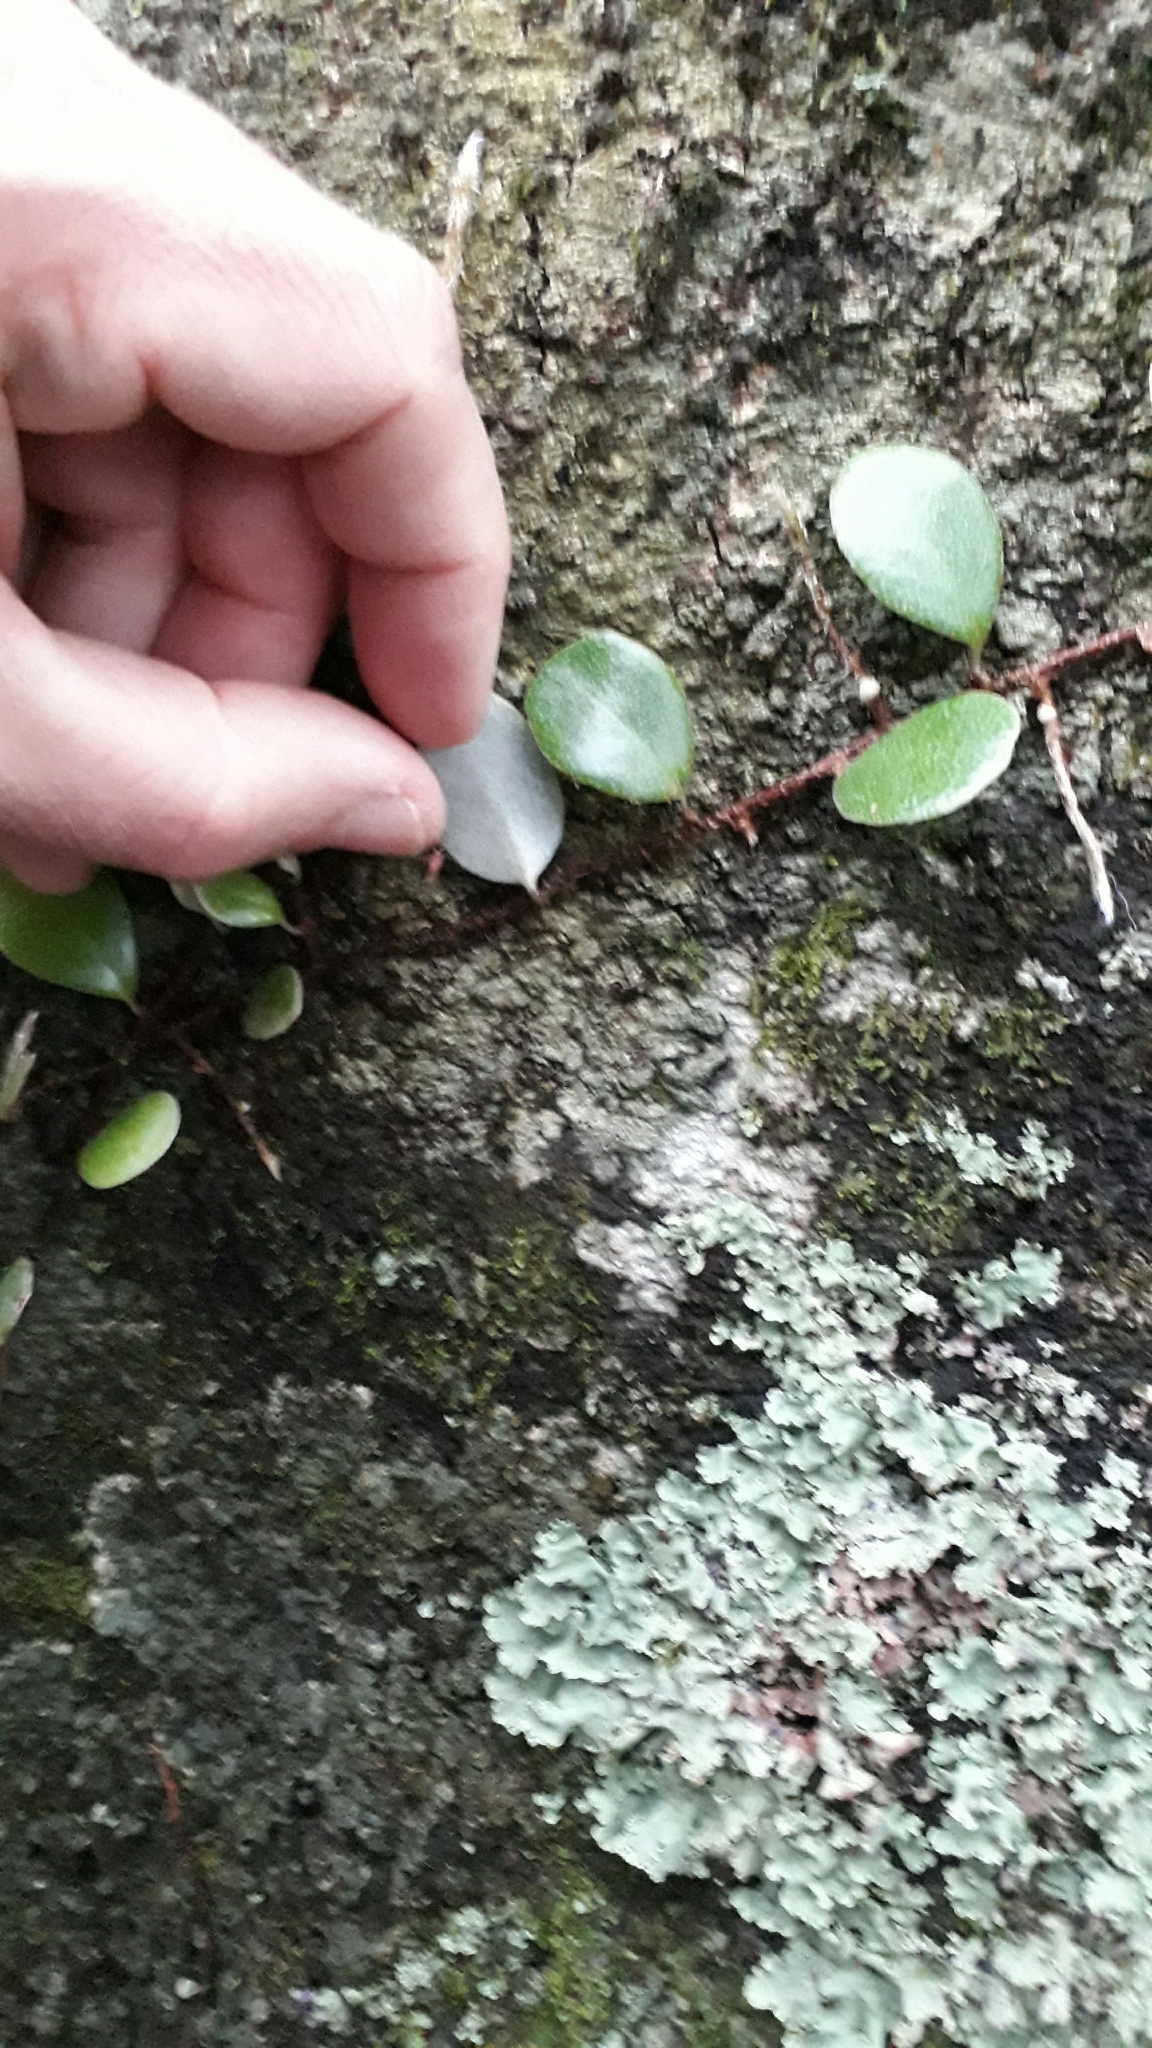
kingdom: Plantae
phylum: Tracheophyta
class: Polypodiopsida
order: Polypodiales
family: Polypodiaceae
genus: Pyrrosia
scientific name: Pyrrosia eleagnifolia
